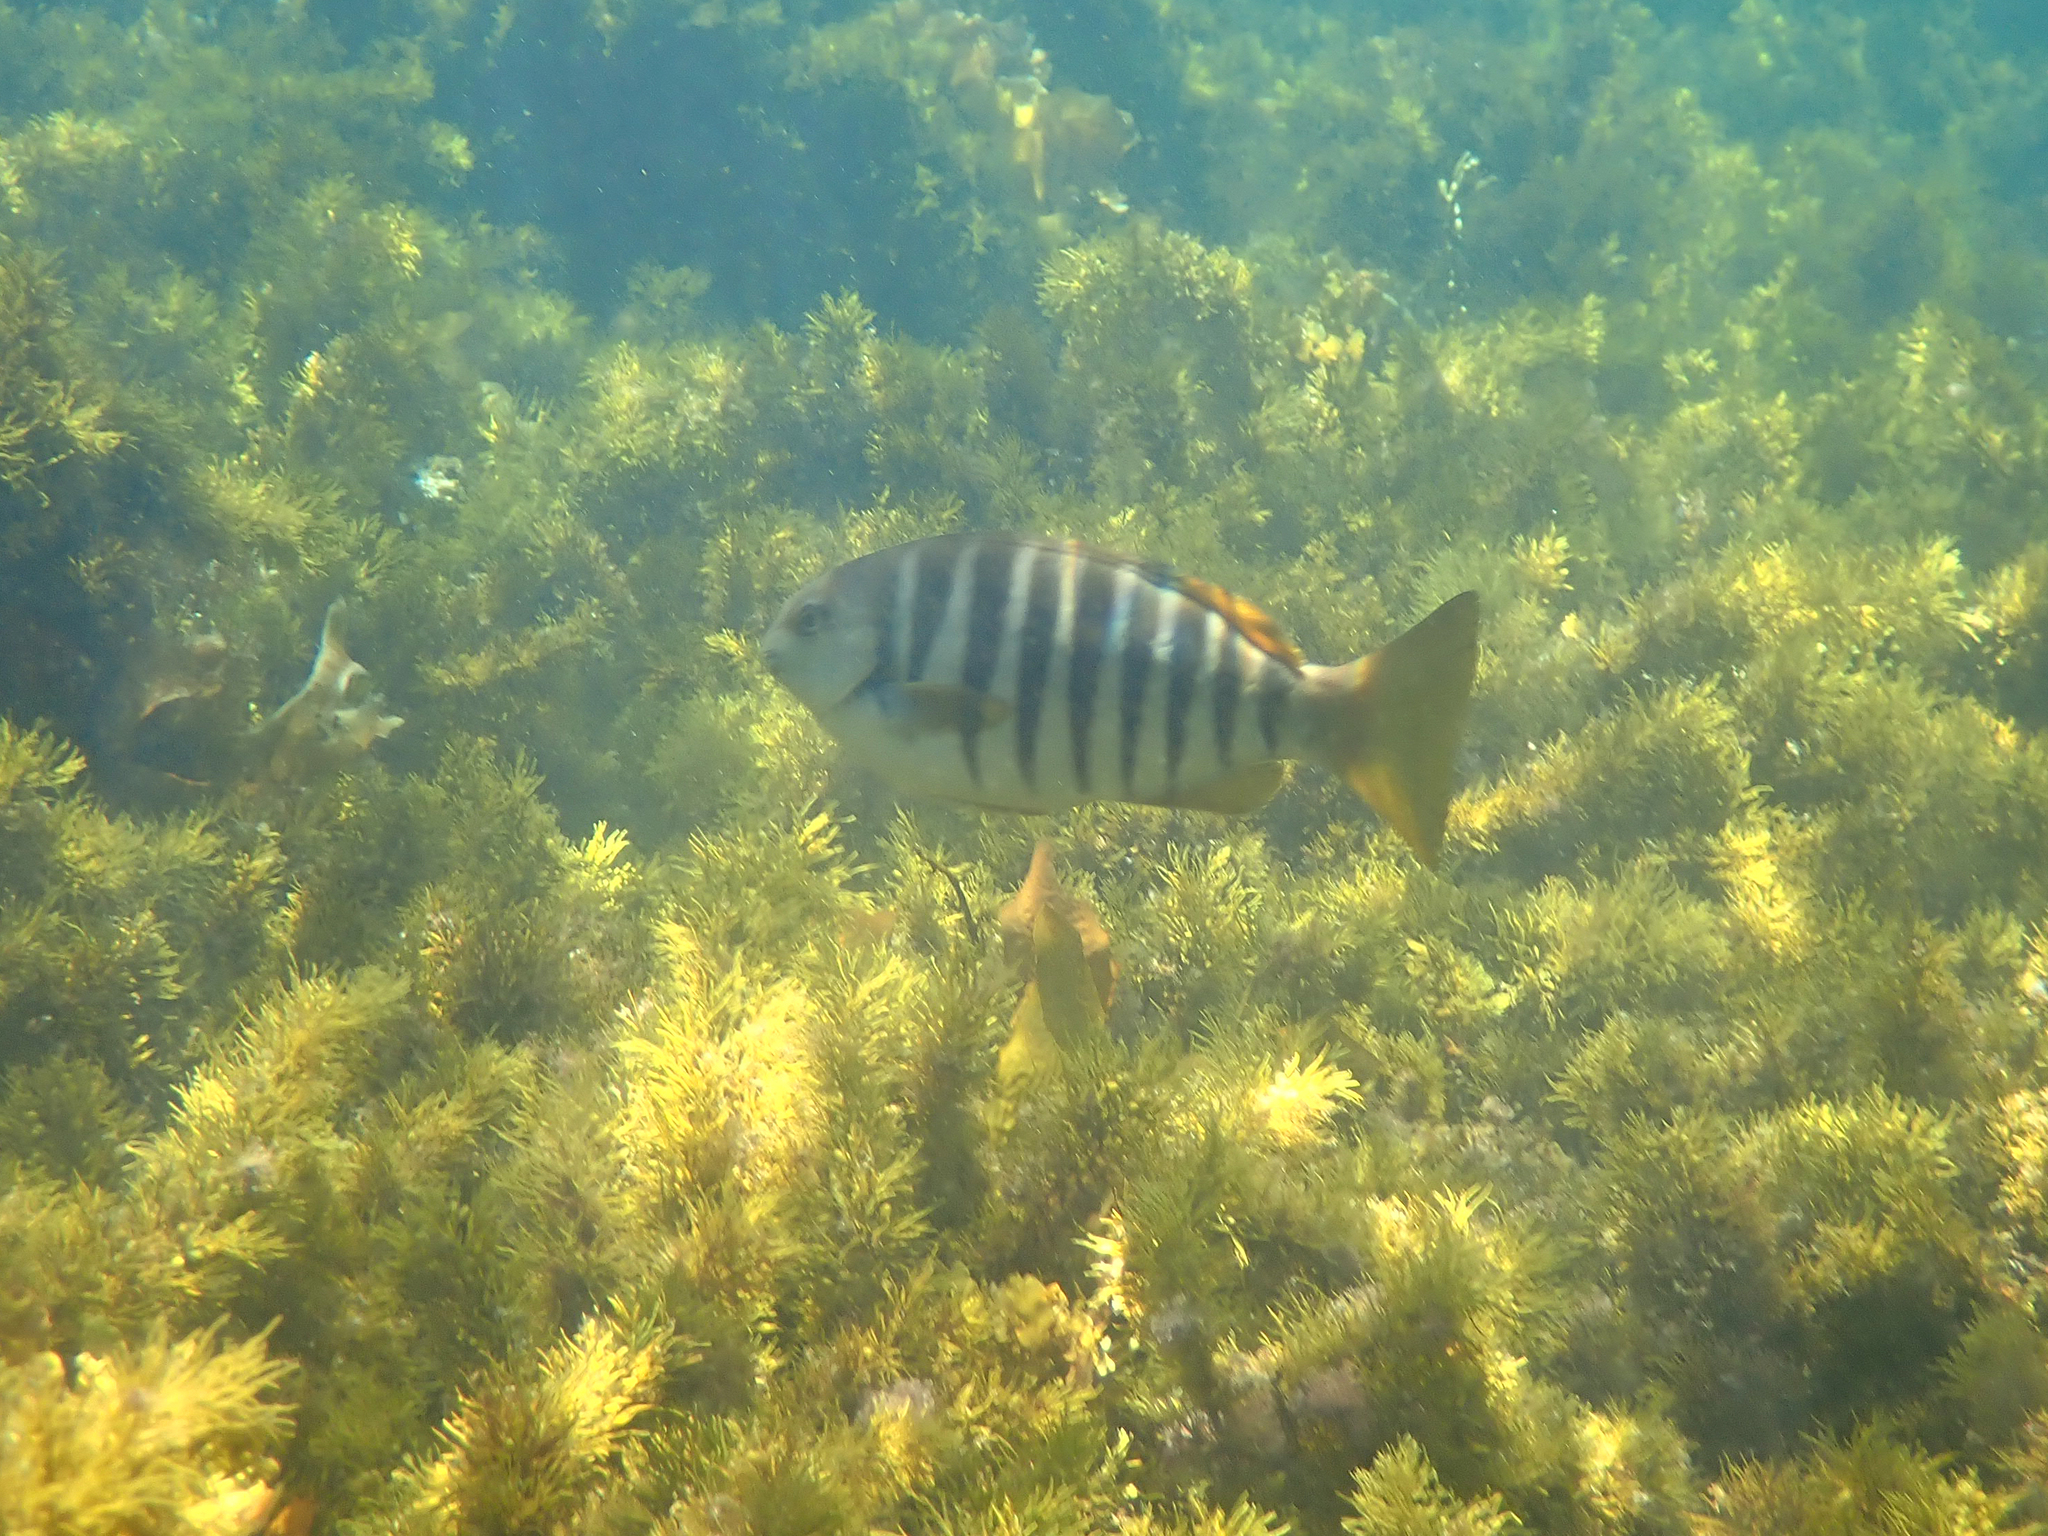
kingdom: Animalia
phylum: Chordata
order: Perciformes
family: Kyphosidae
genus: Girella
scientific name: Girella zebra
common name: Stripey bream
